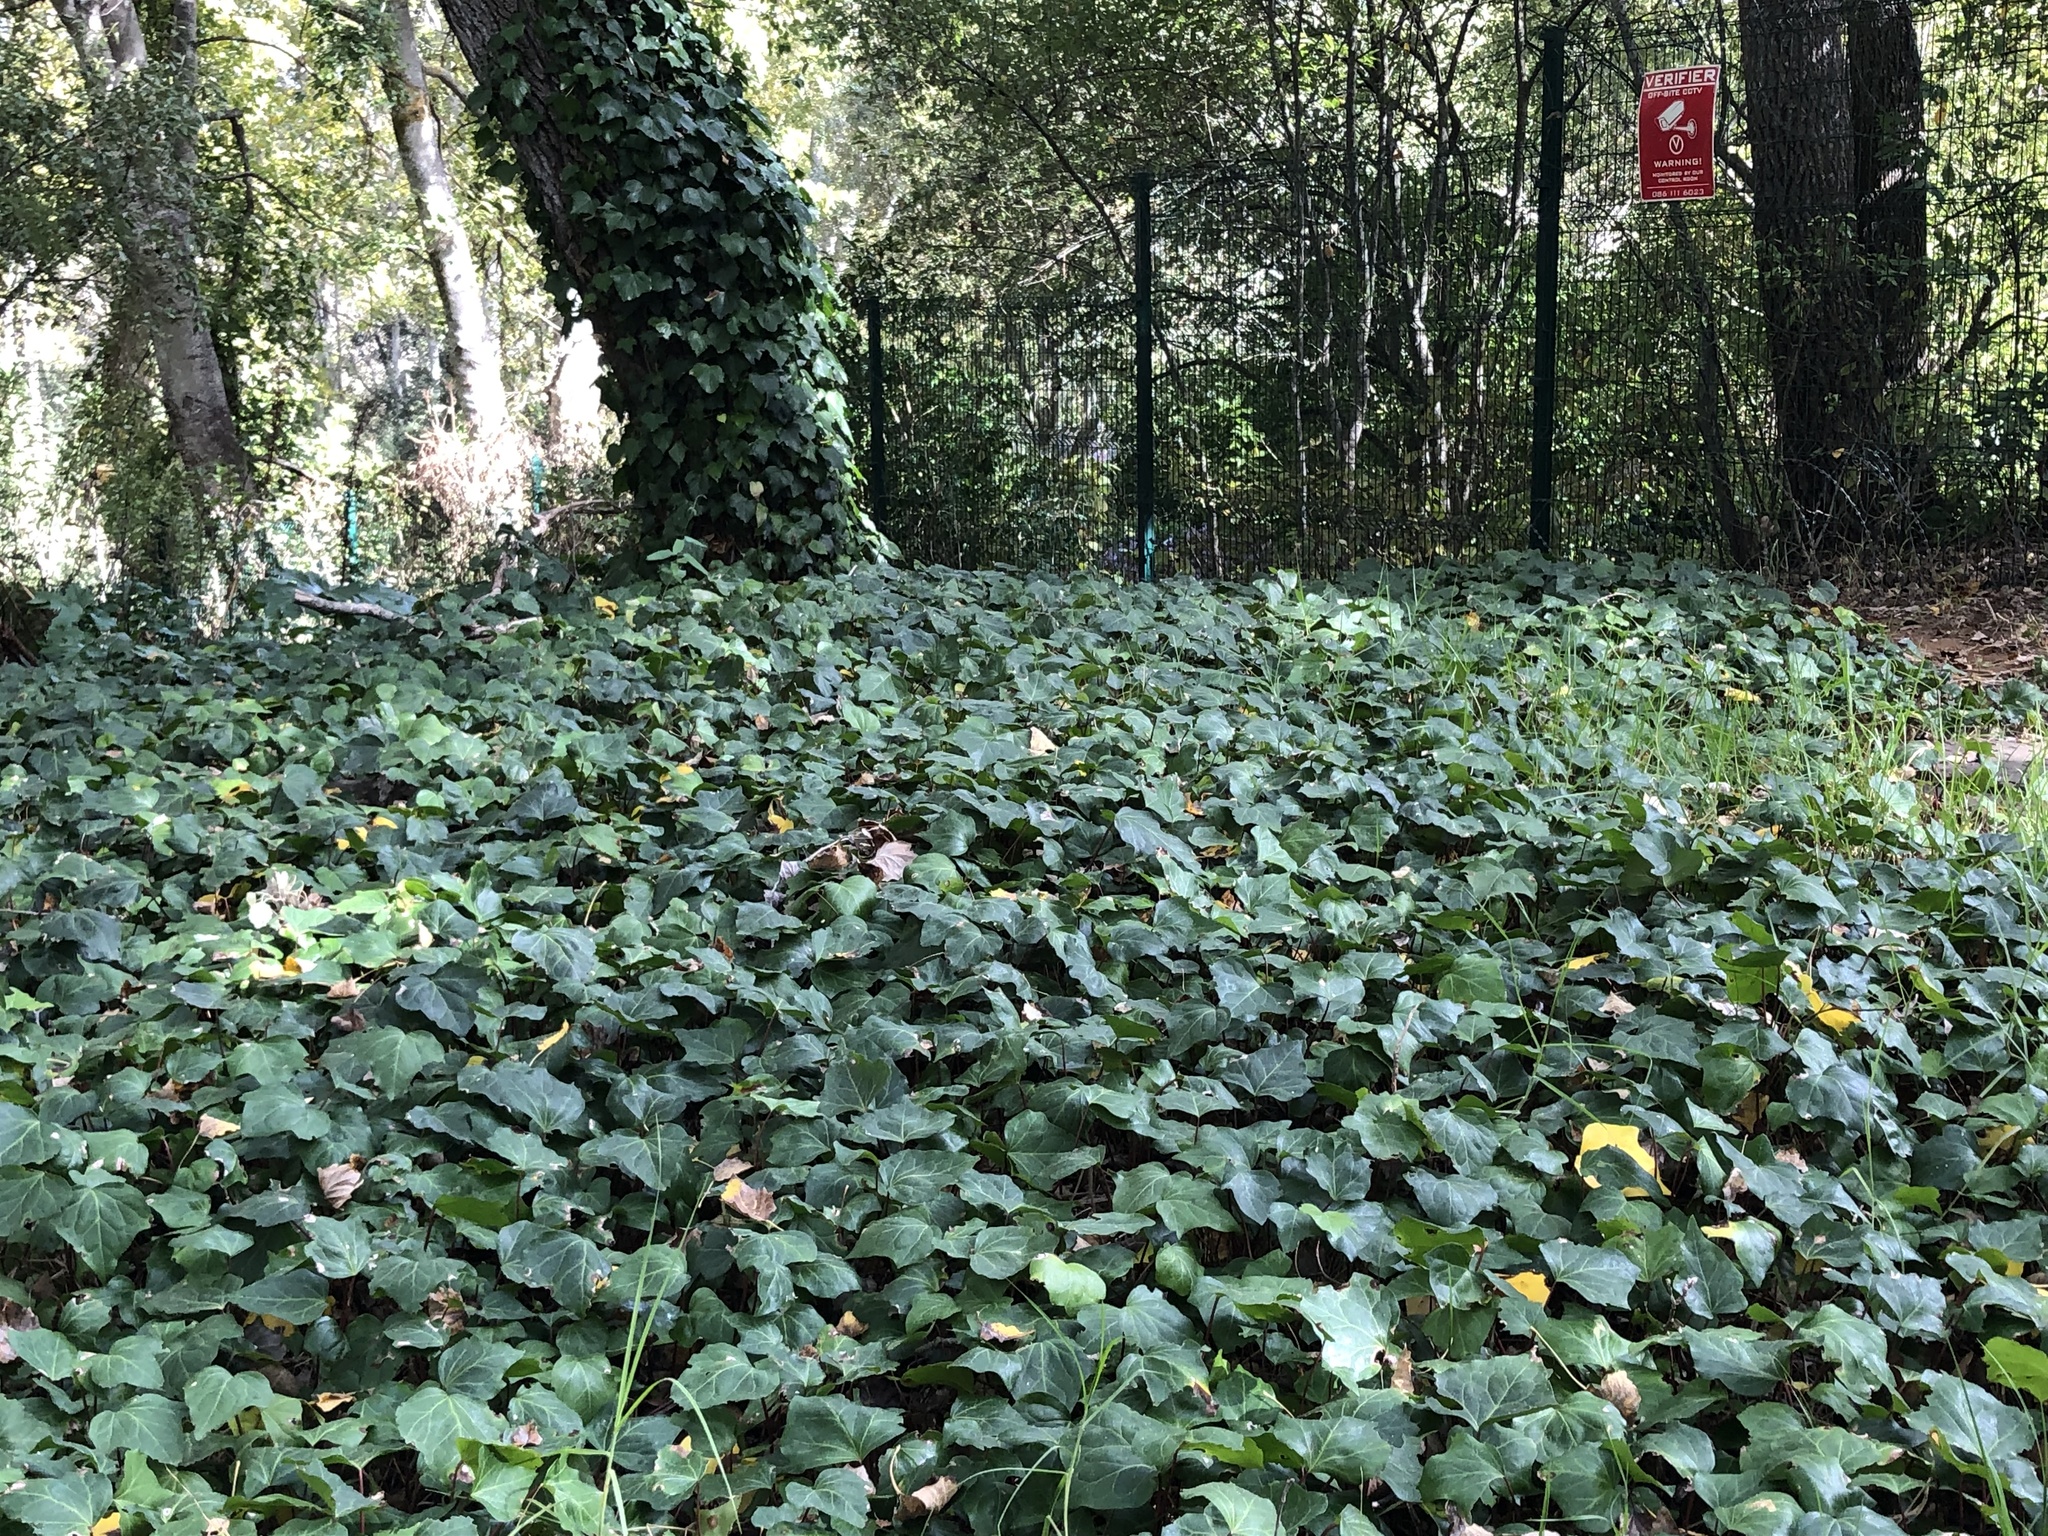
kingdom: Plantae
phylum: Tracheophyta
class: Magnoliopsida
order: Apiales
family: Araliaceae
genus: Hedera
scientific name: Hedera helix
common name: Ivy
